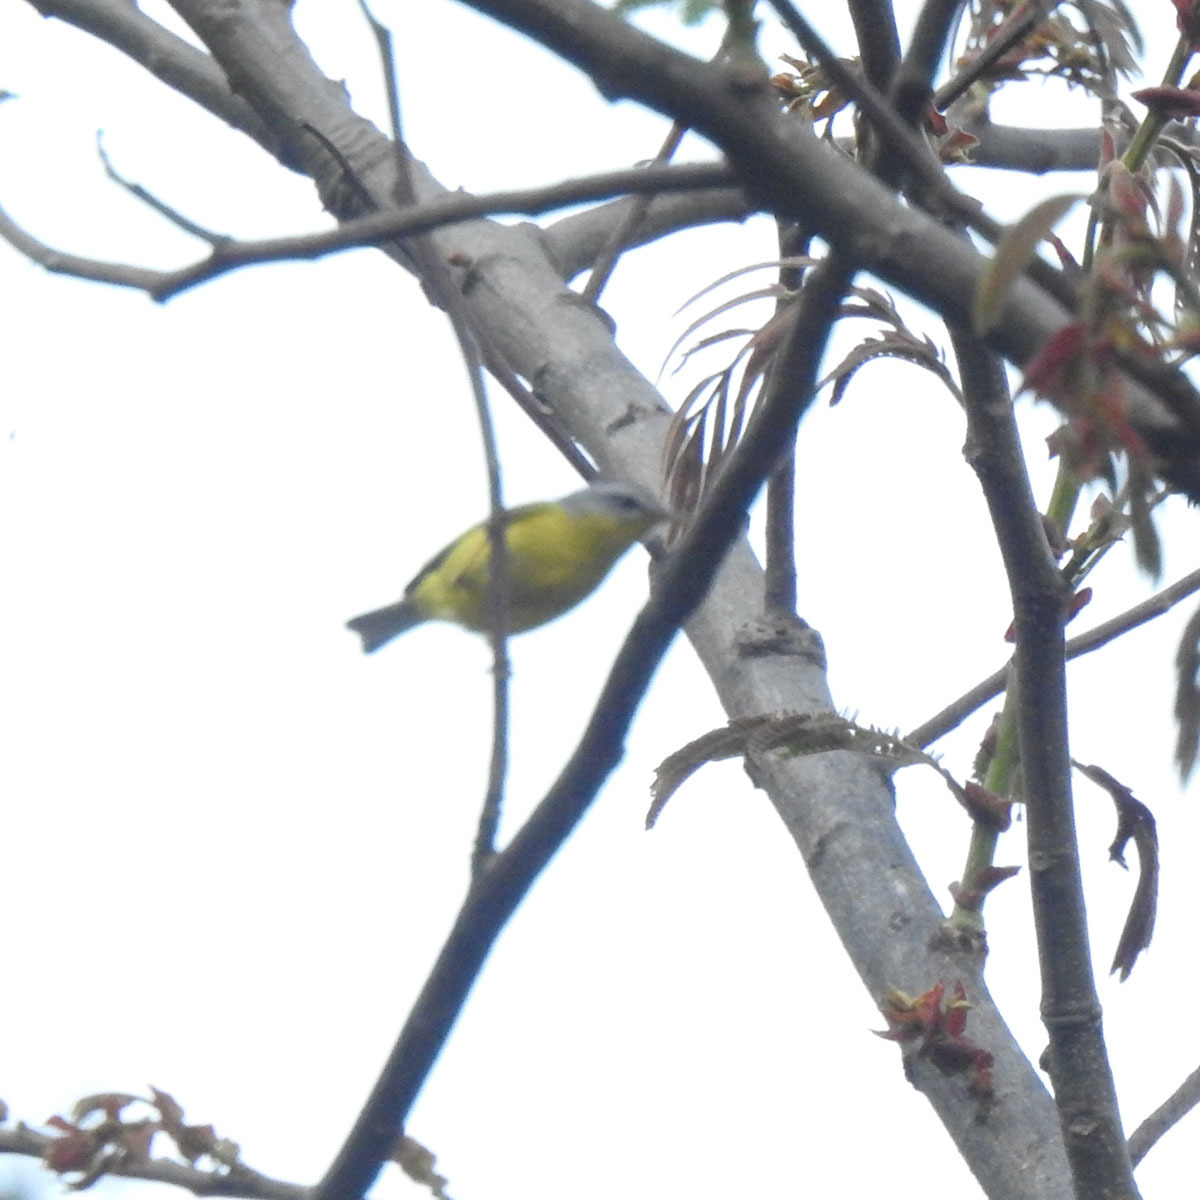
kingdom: Animalia
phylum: Chordata
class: Aves
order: Passeriformes
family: Phylloscopidae
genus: Phylloscopus
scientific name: Phylloscopus xanthoschistos
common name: Grey-hooded warbler
